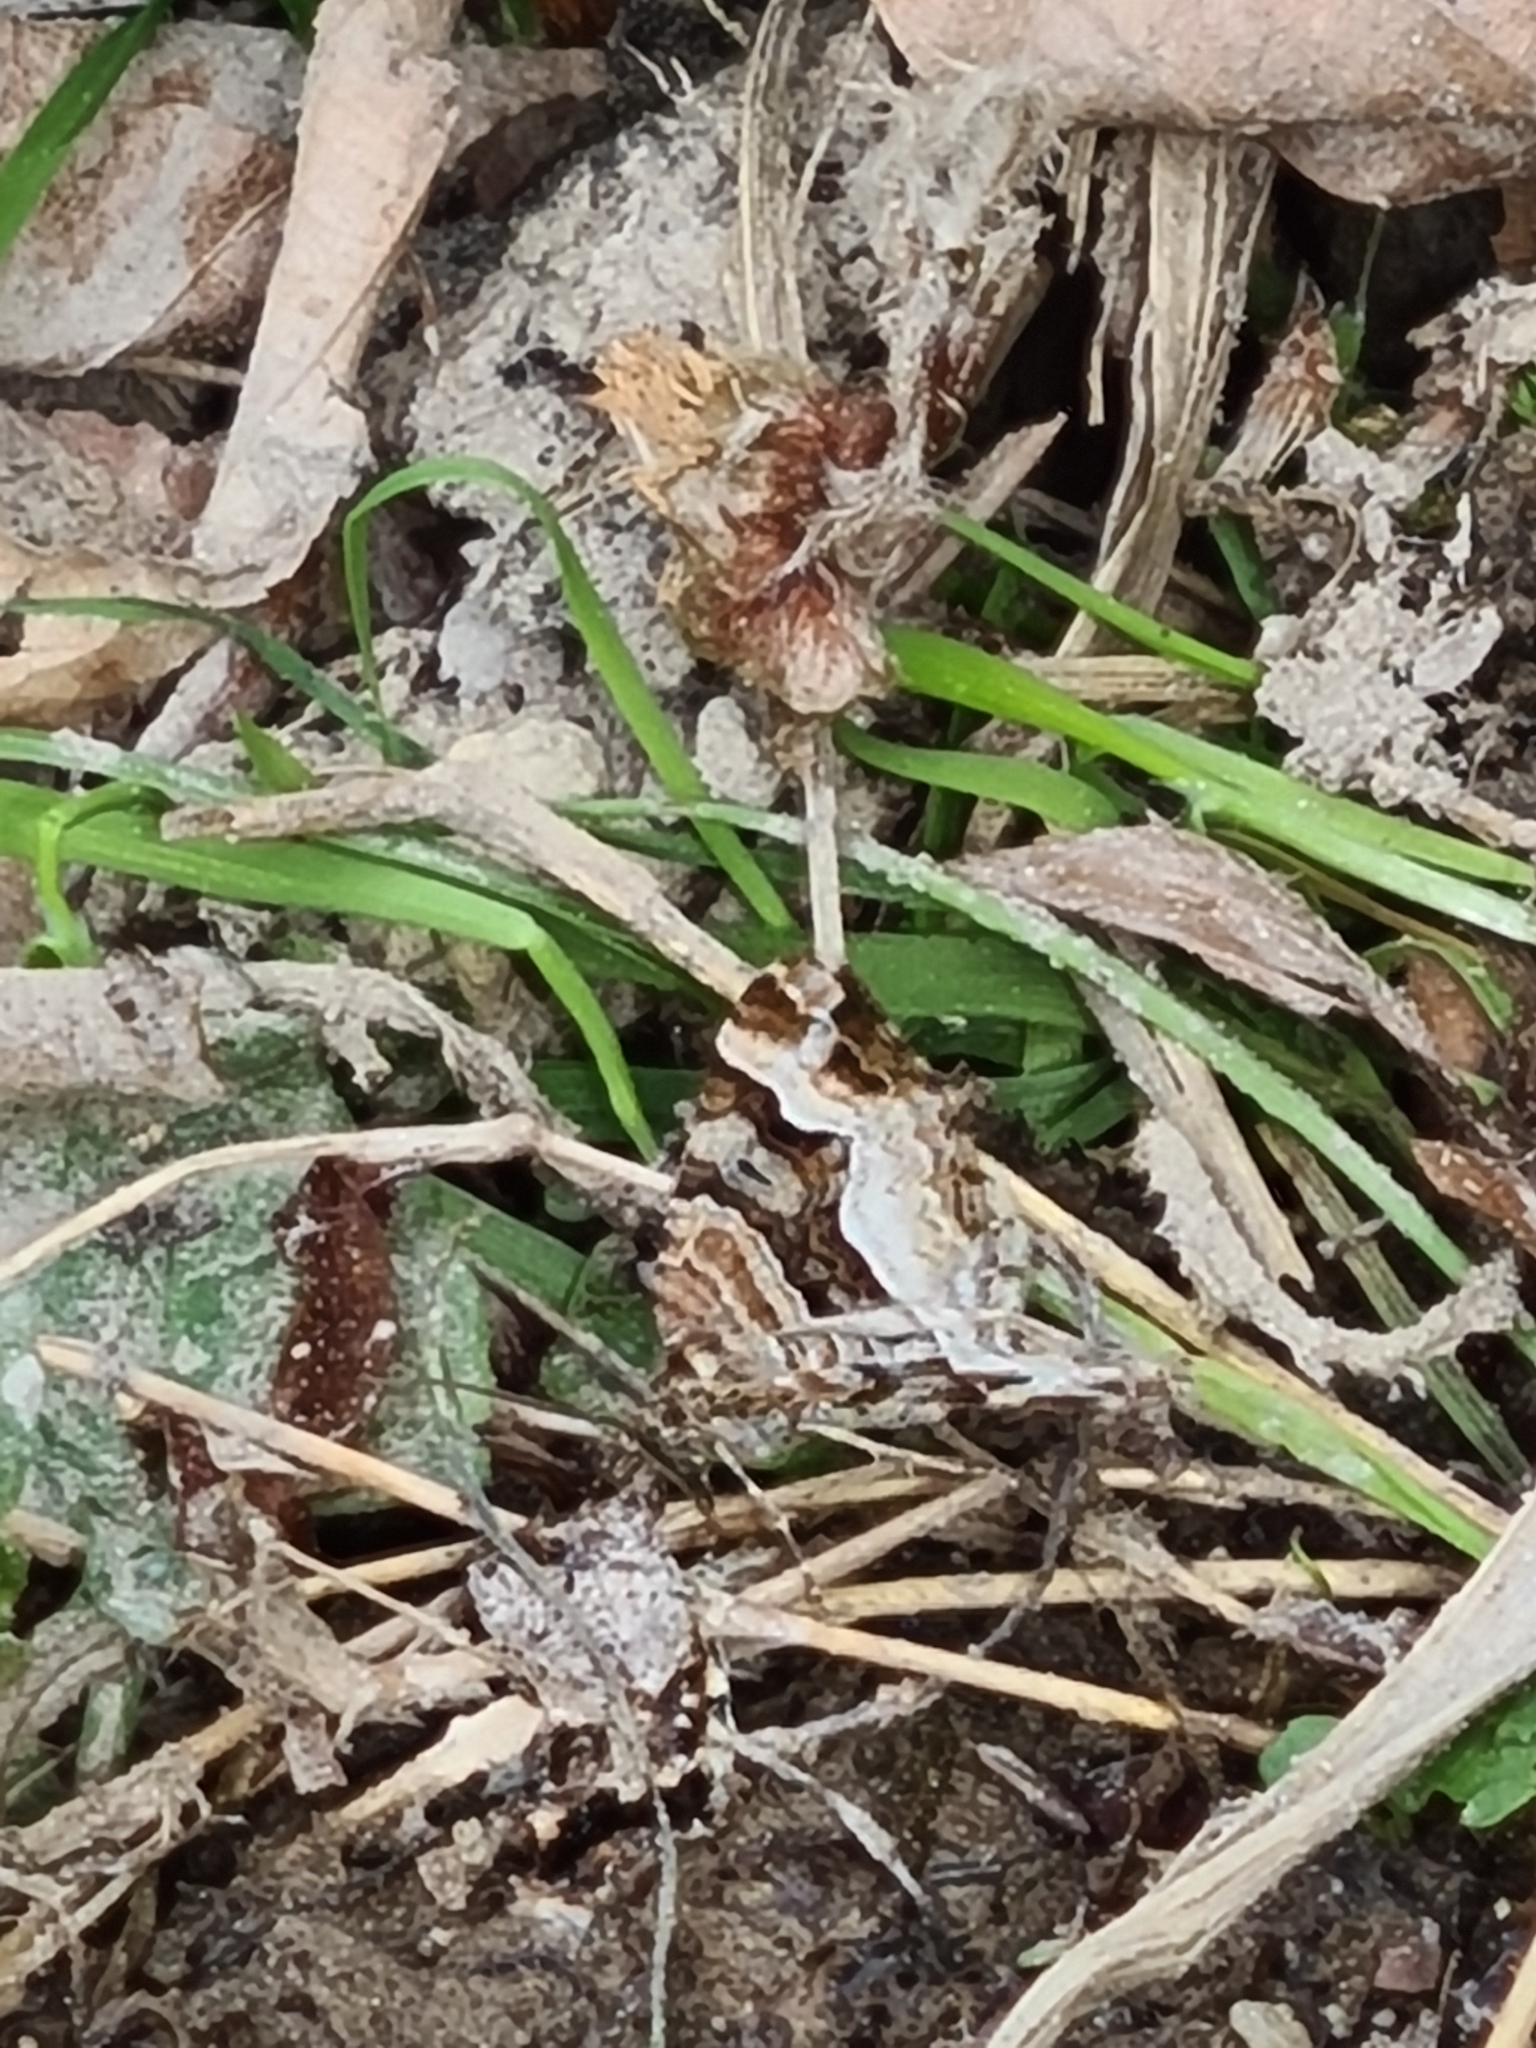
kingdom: Animalia
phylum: Arthropoda
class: Insecta
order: Lepidoptera
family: Geometridae
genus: Xanthorhoe
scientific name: Xanthorhoe biriviata
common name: Balsam carpet
